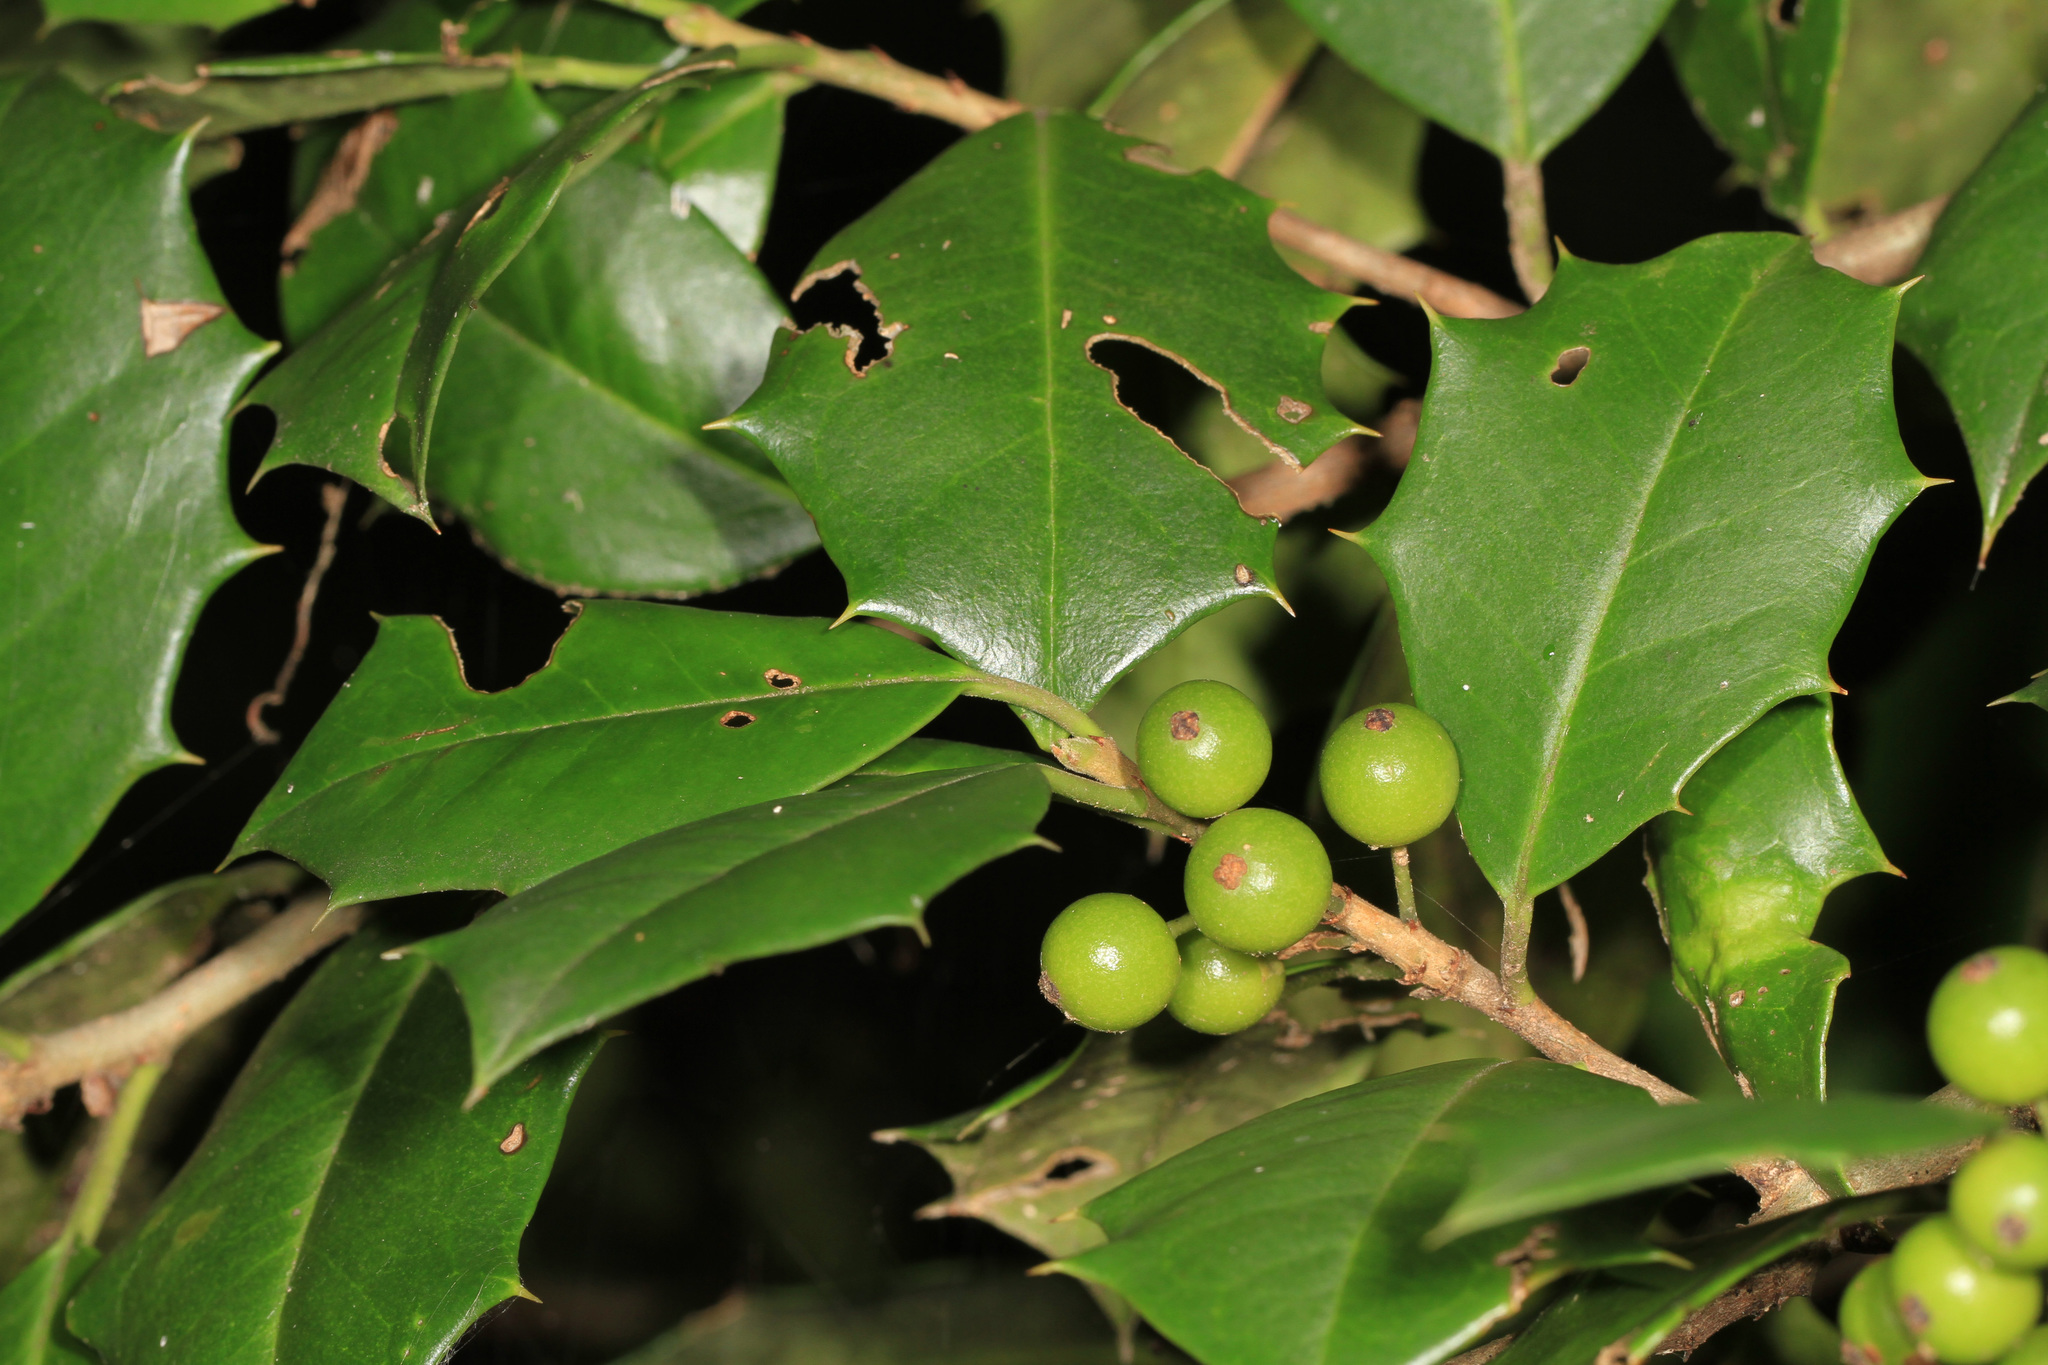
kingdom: Plantae
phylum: Tracheophyta
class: Magnoliopsida
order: Aquifoliales
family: Aquifoliaceae
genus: Ilex
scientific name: Ilex opaca
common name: American holly
